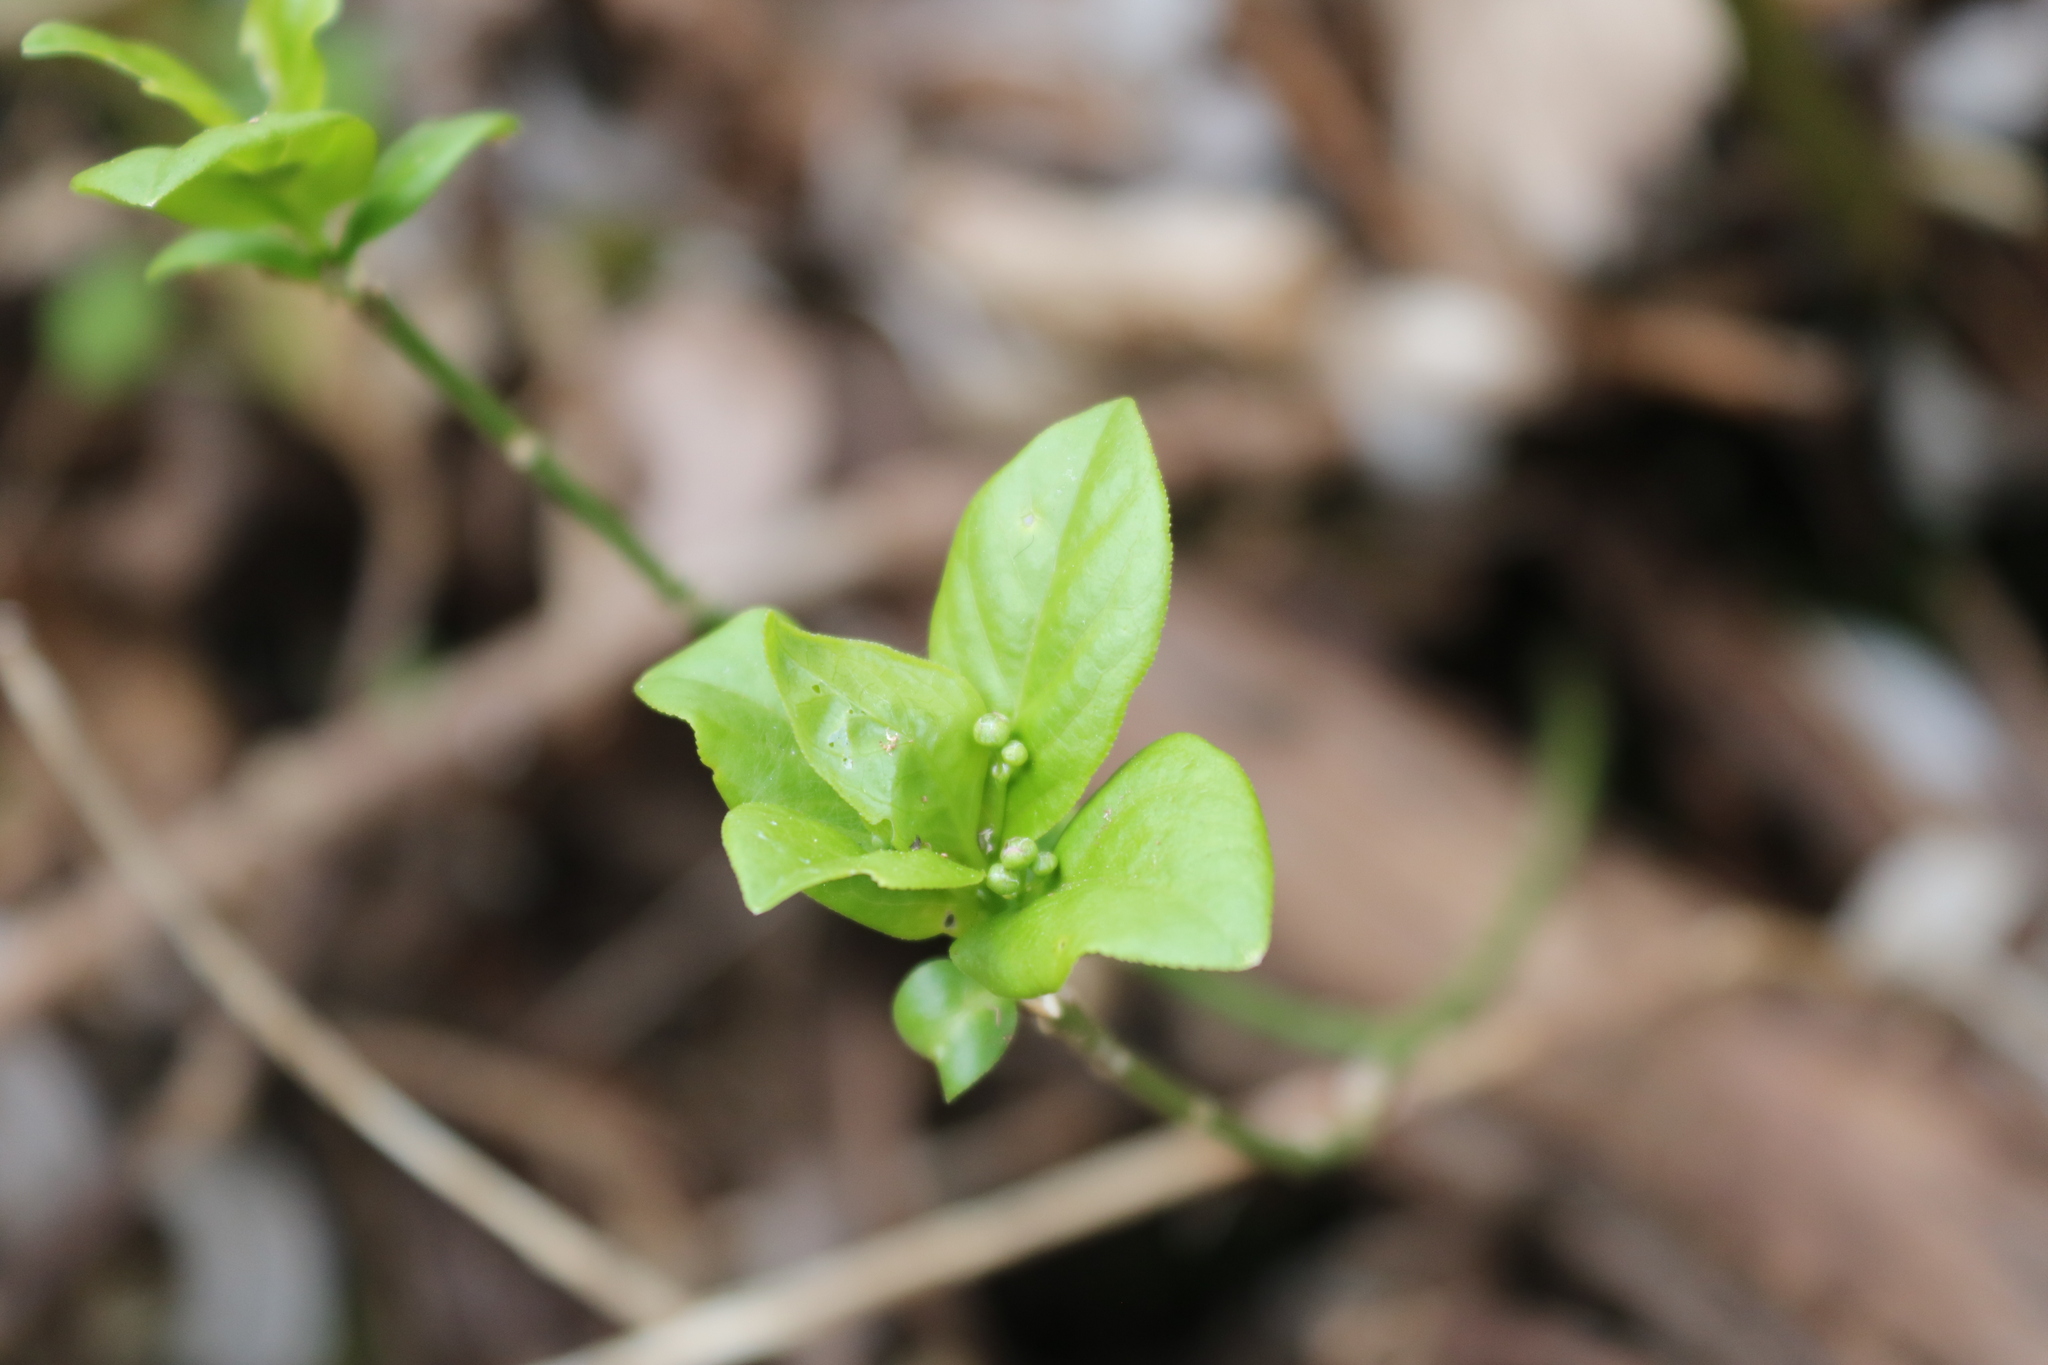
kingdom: Plantae
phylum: Tracheophyta
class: Magnoliopsida
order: Celastrales
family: Celastraceae
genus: Euonymus
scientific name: Euonymus obovatus
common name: Running strawberry-bush
